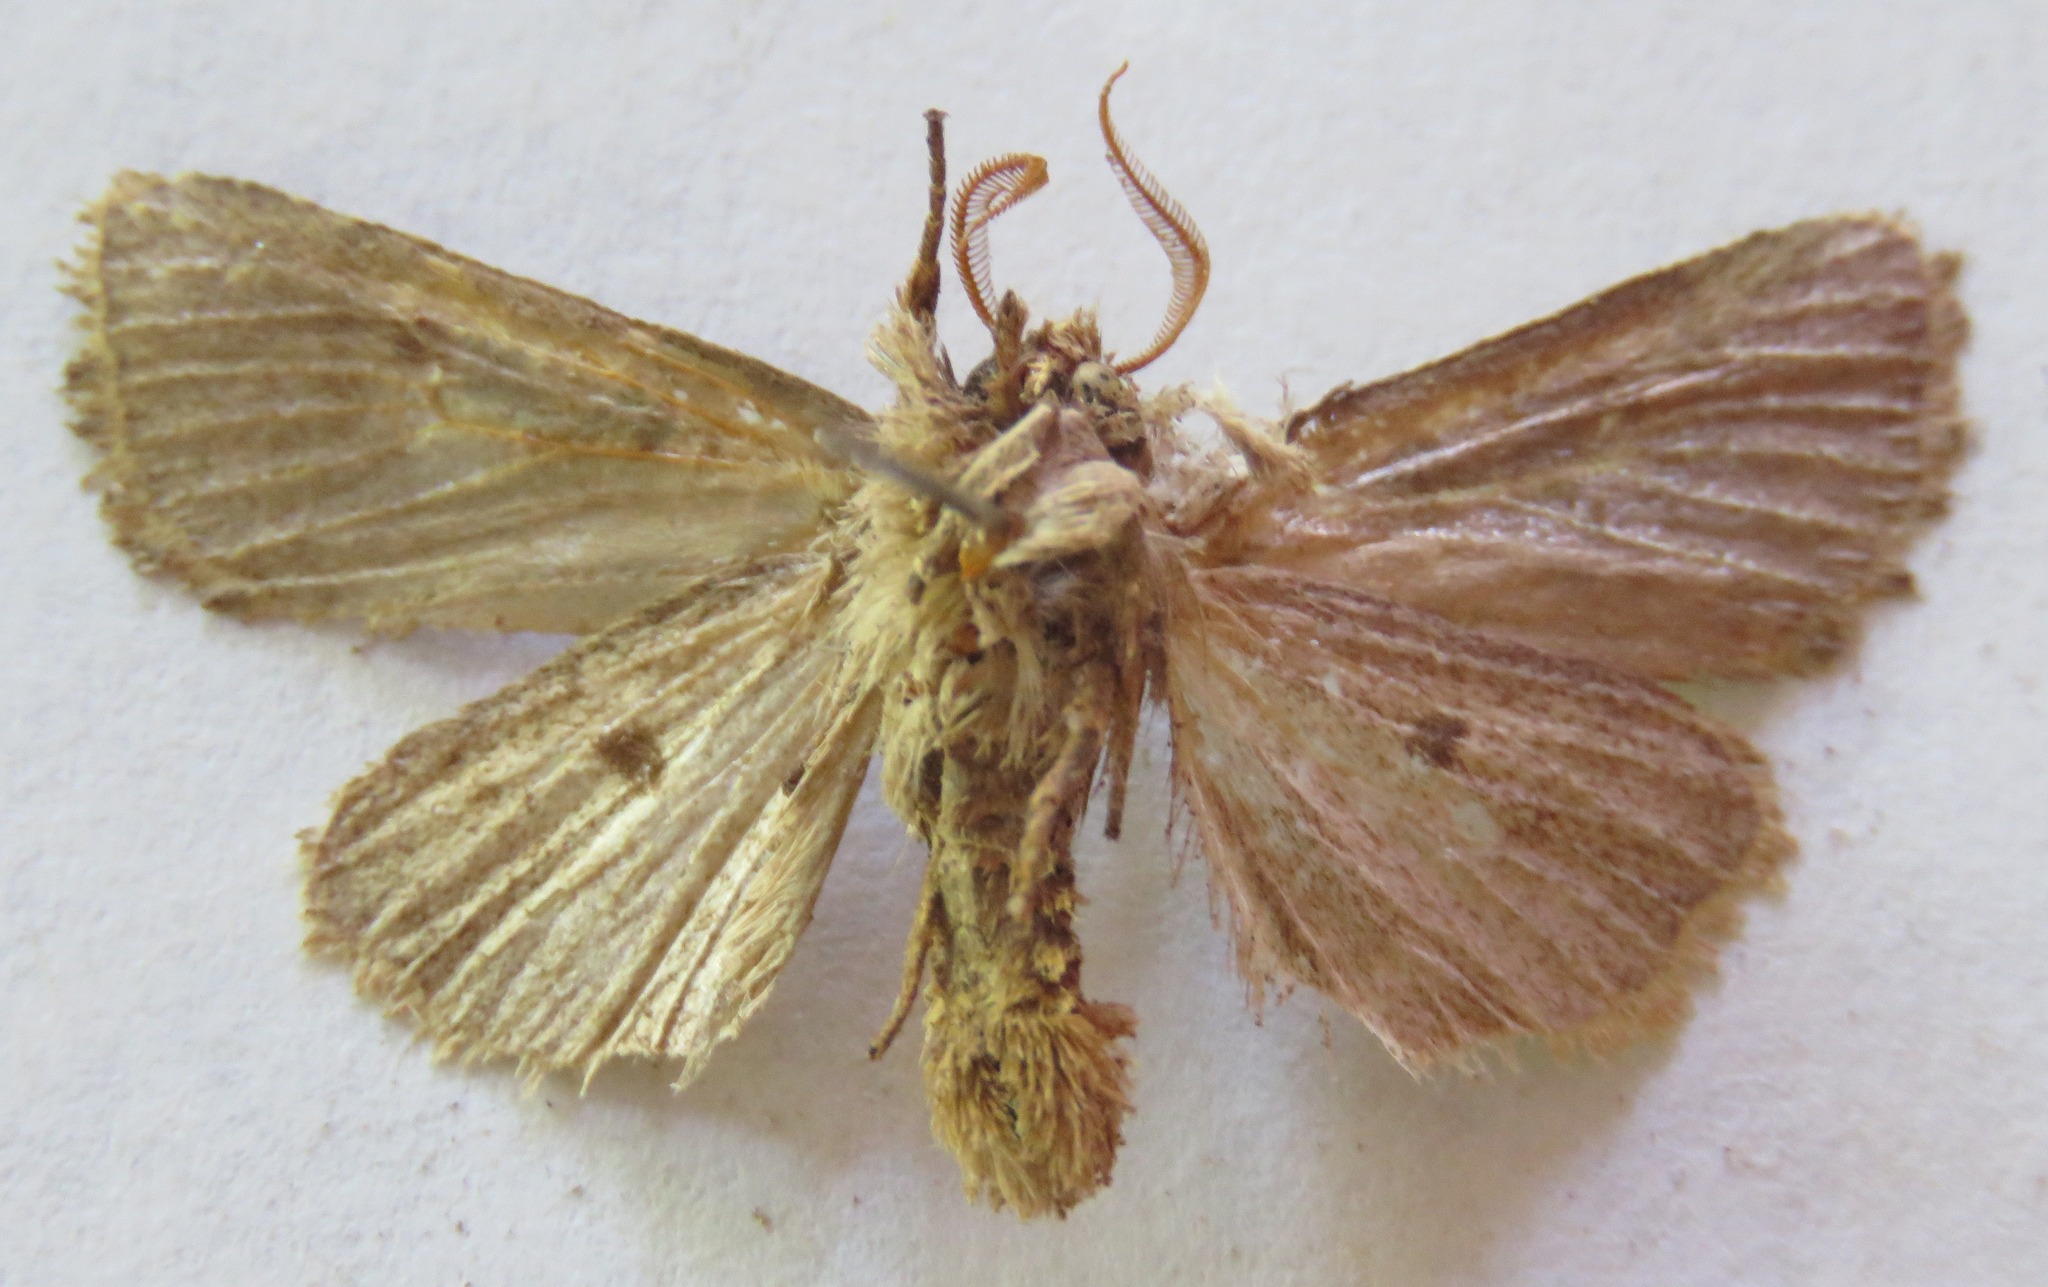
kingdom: Animalia
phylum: Arthropoda
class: Insecta
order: Lepidoptera
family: Noctuidae
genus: Orthosia
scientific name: Orthosia gothica
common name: Hebrew character
